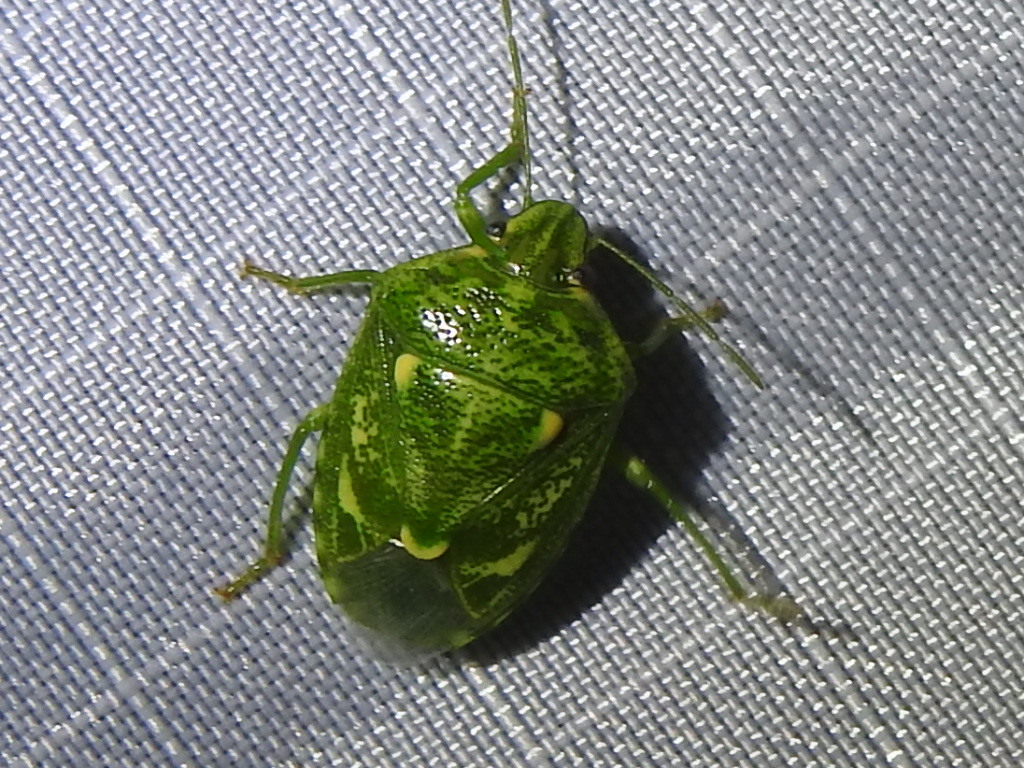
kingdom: Animalia
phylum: Arthropoda
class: Insecta
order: Hemiptera
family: Pentatomidae
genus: Banasa
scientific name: Banasa euchlora
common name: Cedar berry bug
